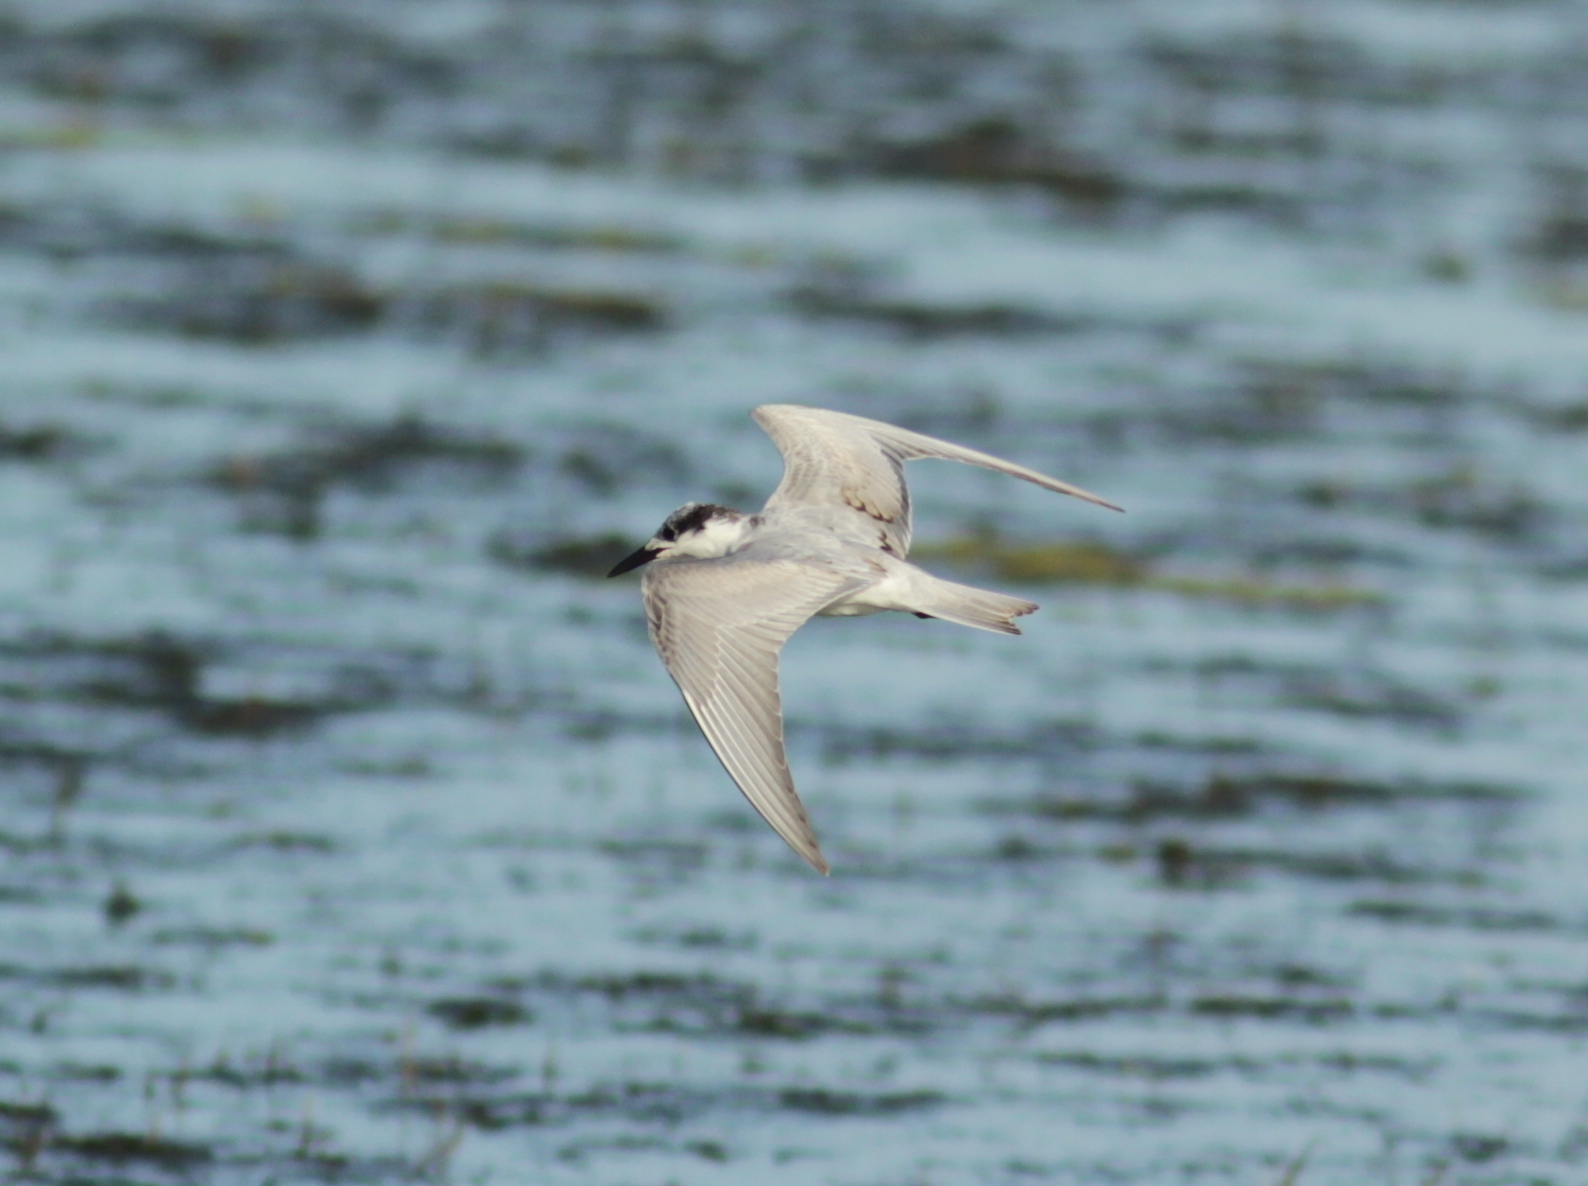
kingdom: Animalia
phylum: Chordata
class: Aves
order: Charadriiformes
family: Laridae
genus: Chlidonias
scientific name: Chlidonias hybrida
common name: Whiskered tern
